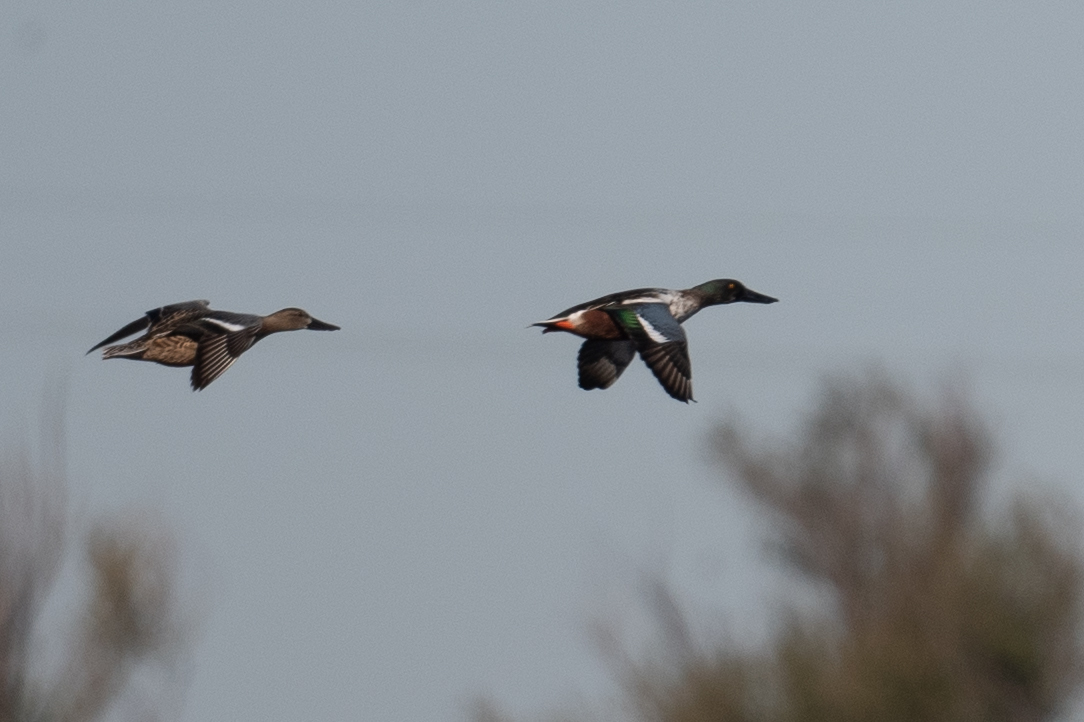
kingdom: Animalia
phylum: Chordata
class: Aves
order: Anseriformes
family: Anatidae
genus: Spatula
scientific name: Spatula clypeata
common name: Northern shoveler
